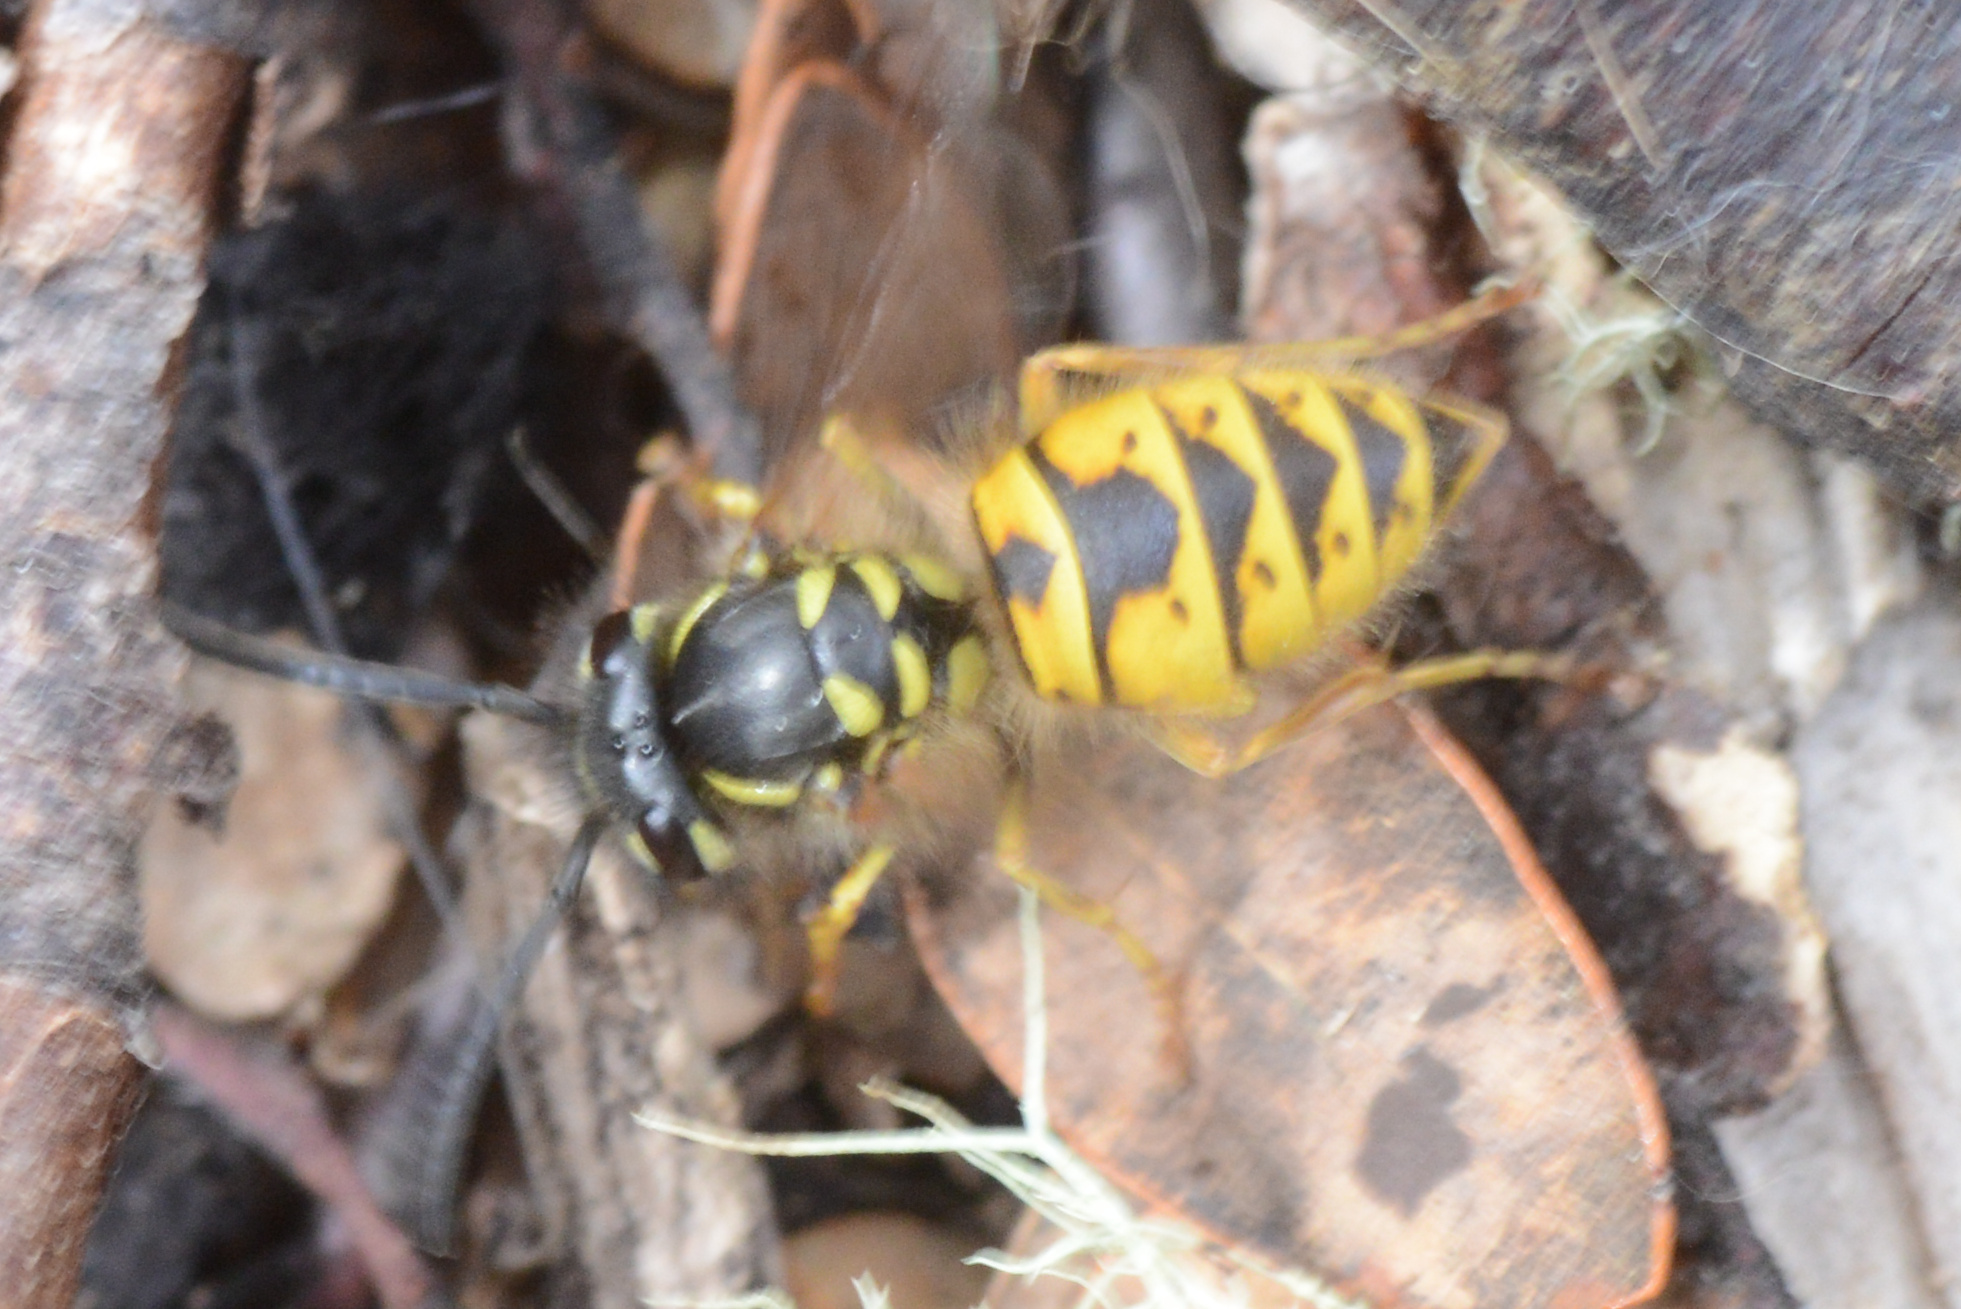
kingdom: Animalia
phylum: Arthropoda
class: Insecta
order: Hymenoptera
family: Vespidae
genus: Vespula
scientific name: Vespula vulgaris
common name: Common wasp
